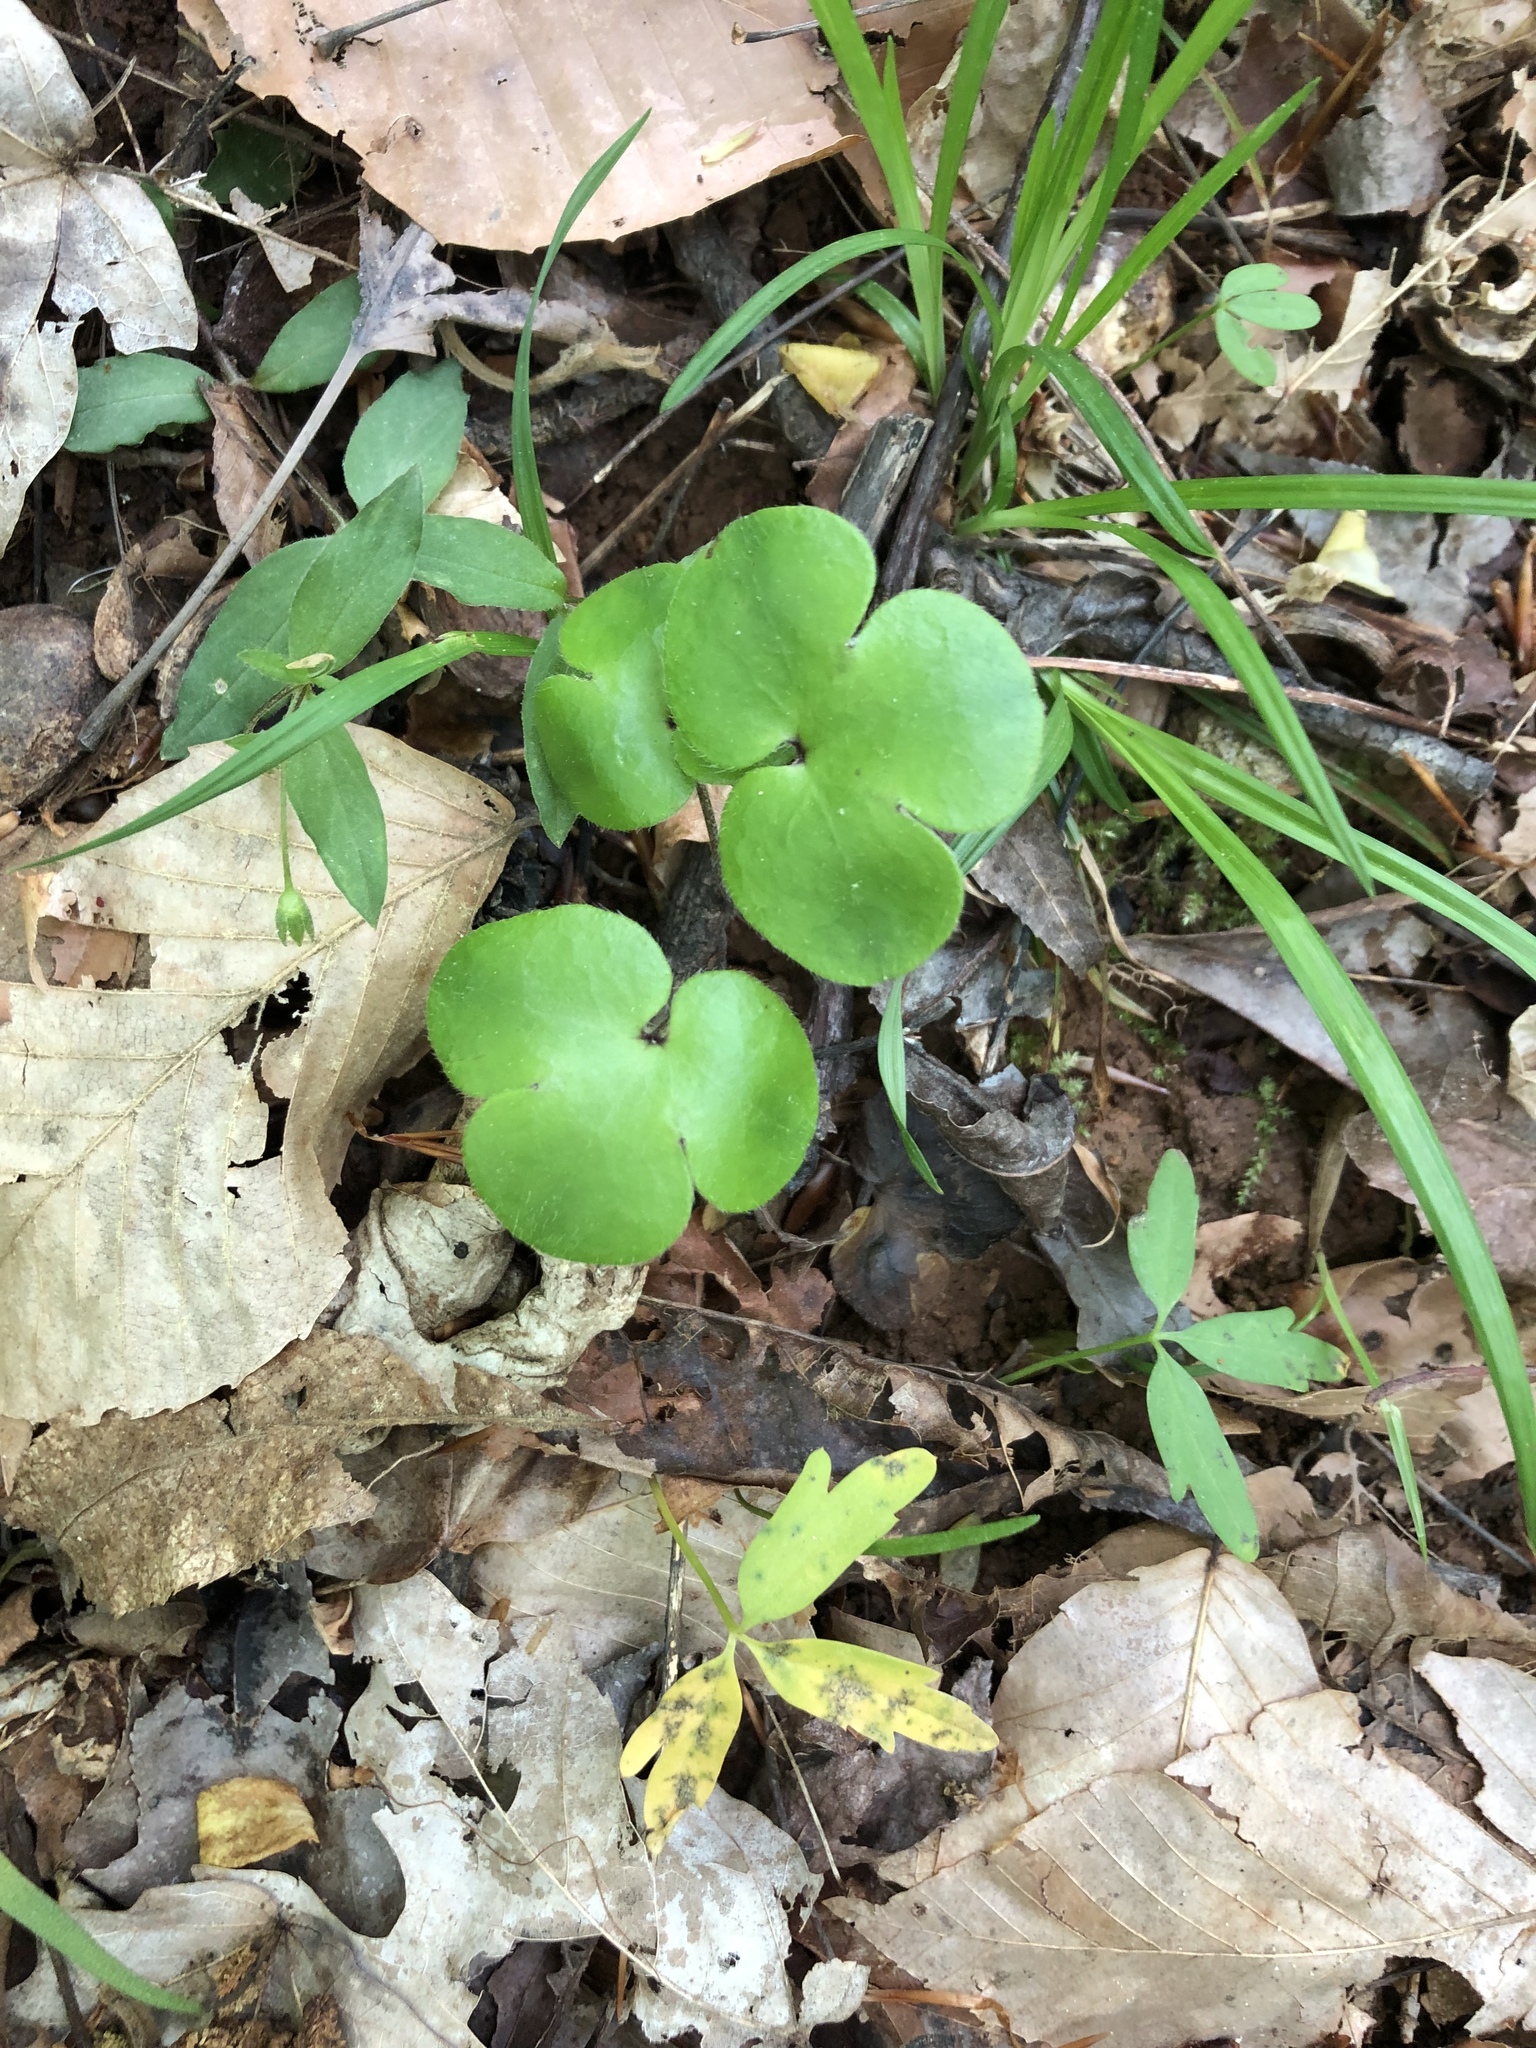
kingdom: Plantae
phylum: Tracheophyta
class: Magnoliopsida
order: Ranunculales
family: Ranunculaceae
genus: Hepatica
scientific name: Hepatica americana
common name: American hepatica
